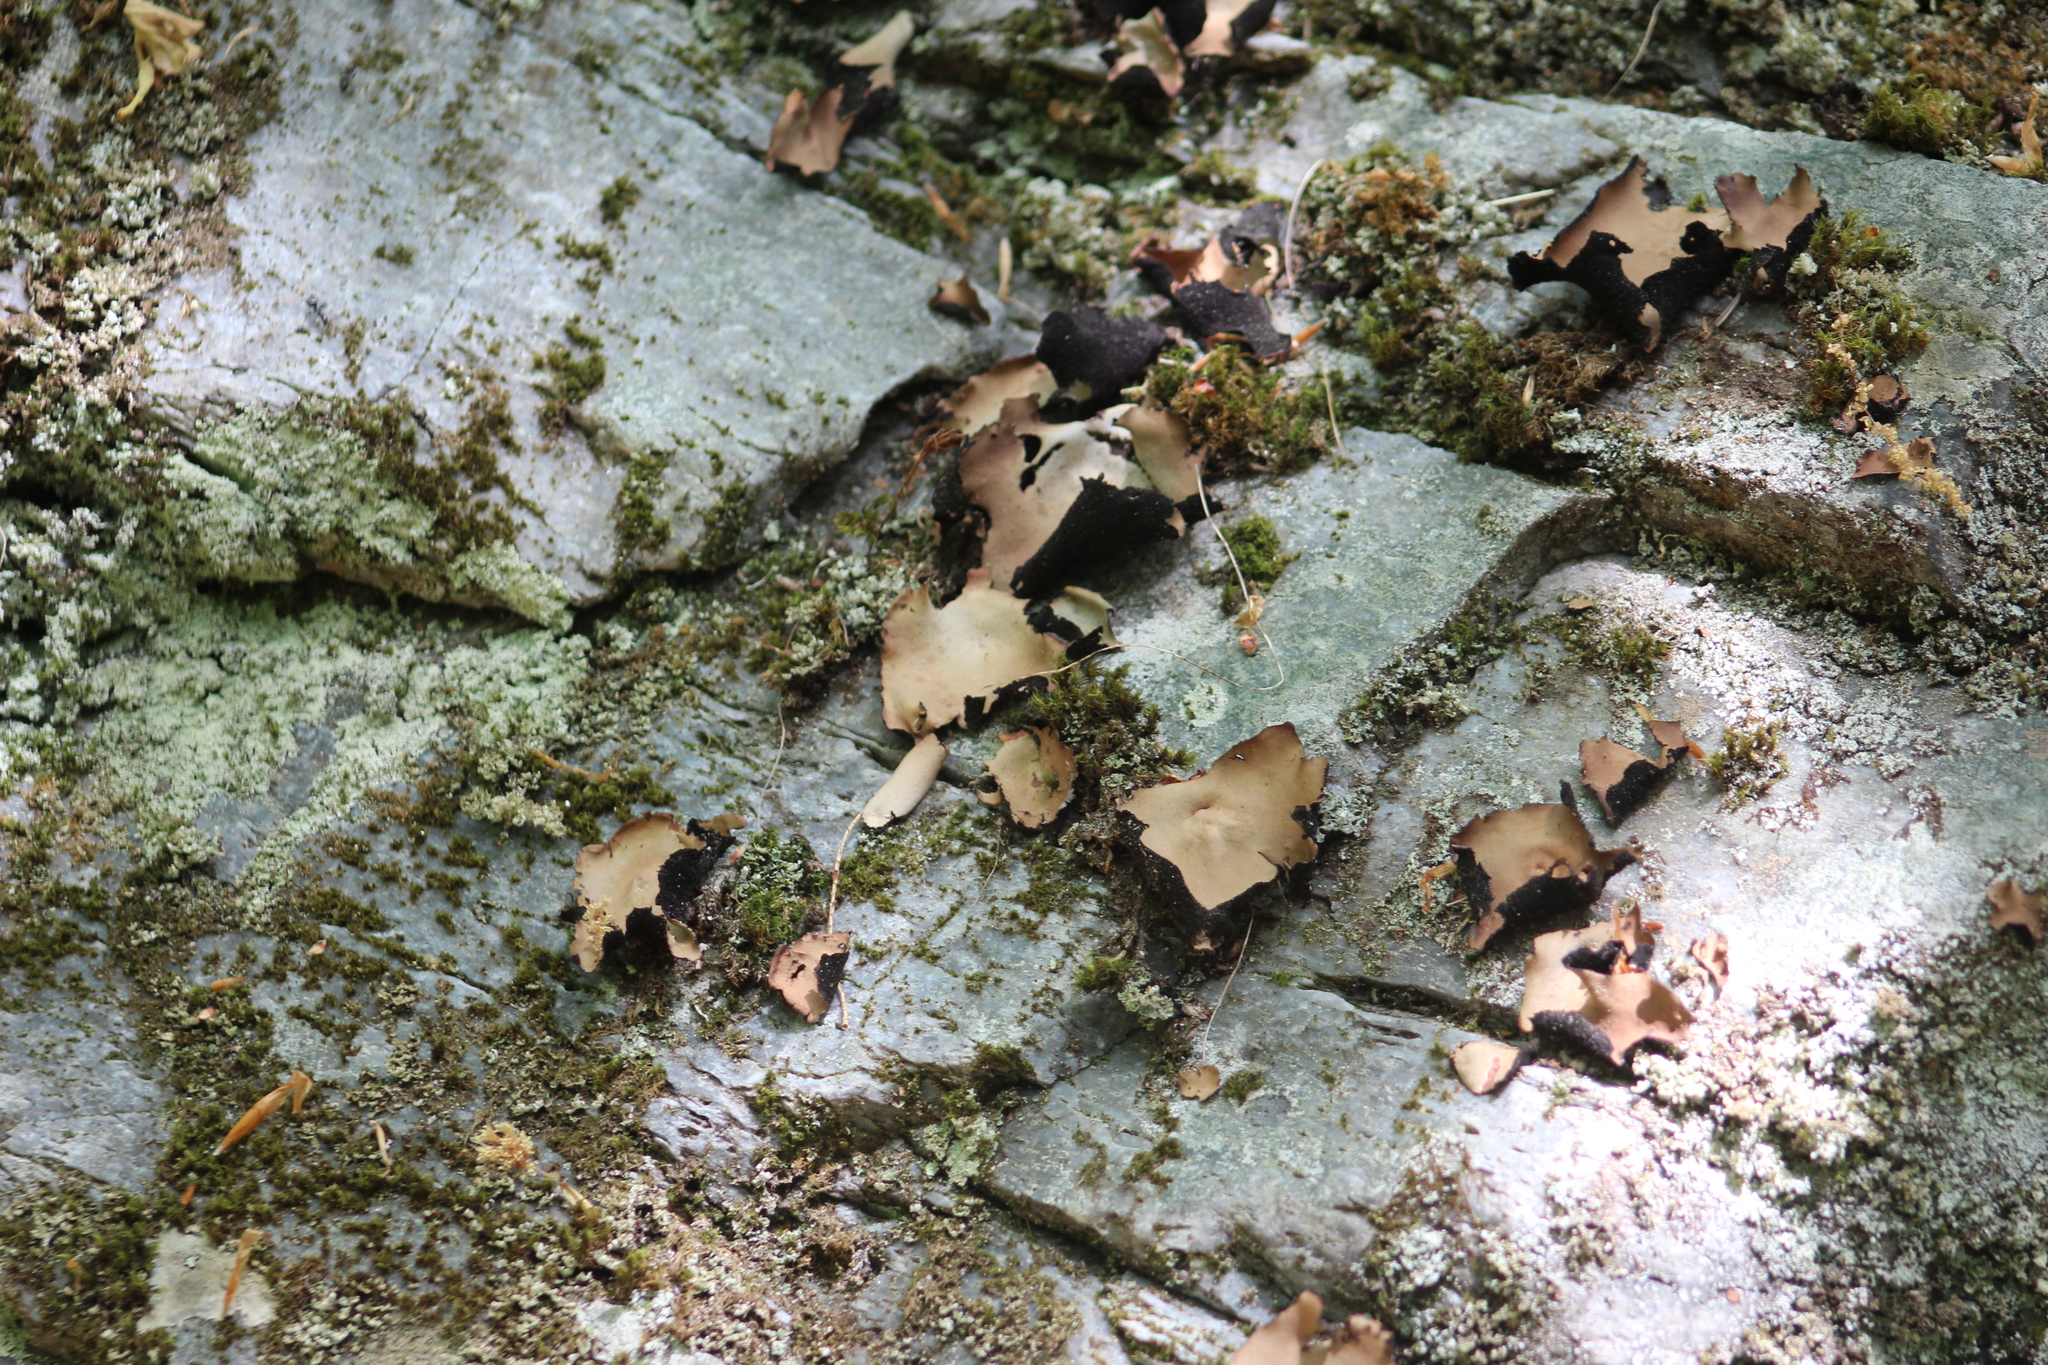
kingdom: Fungi
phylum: Ascomycota
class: Lecanoromycetes
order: Umbilicariales
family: Umbilicariaceae
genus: Umbilicaria
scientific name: Umbilicaria mammulata
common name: Smooth rock tripe
